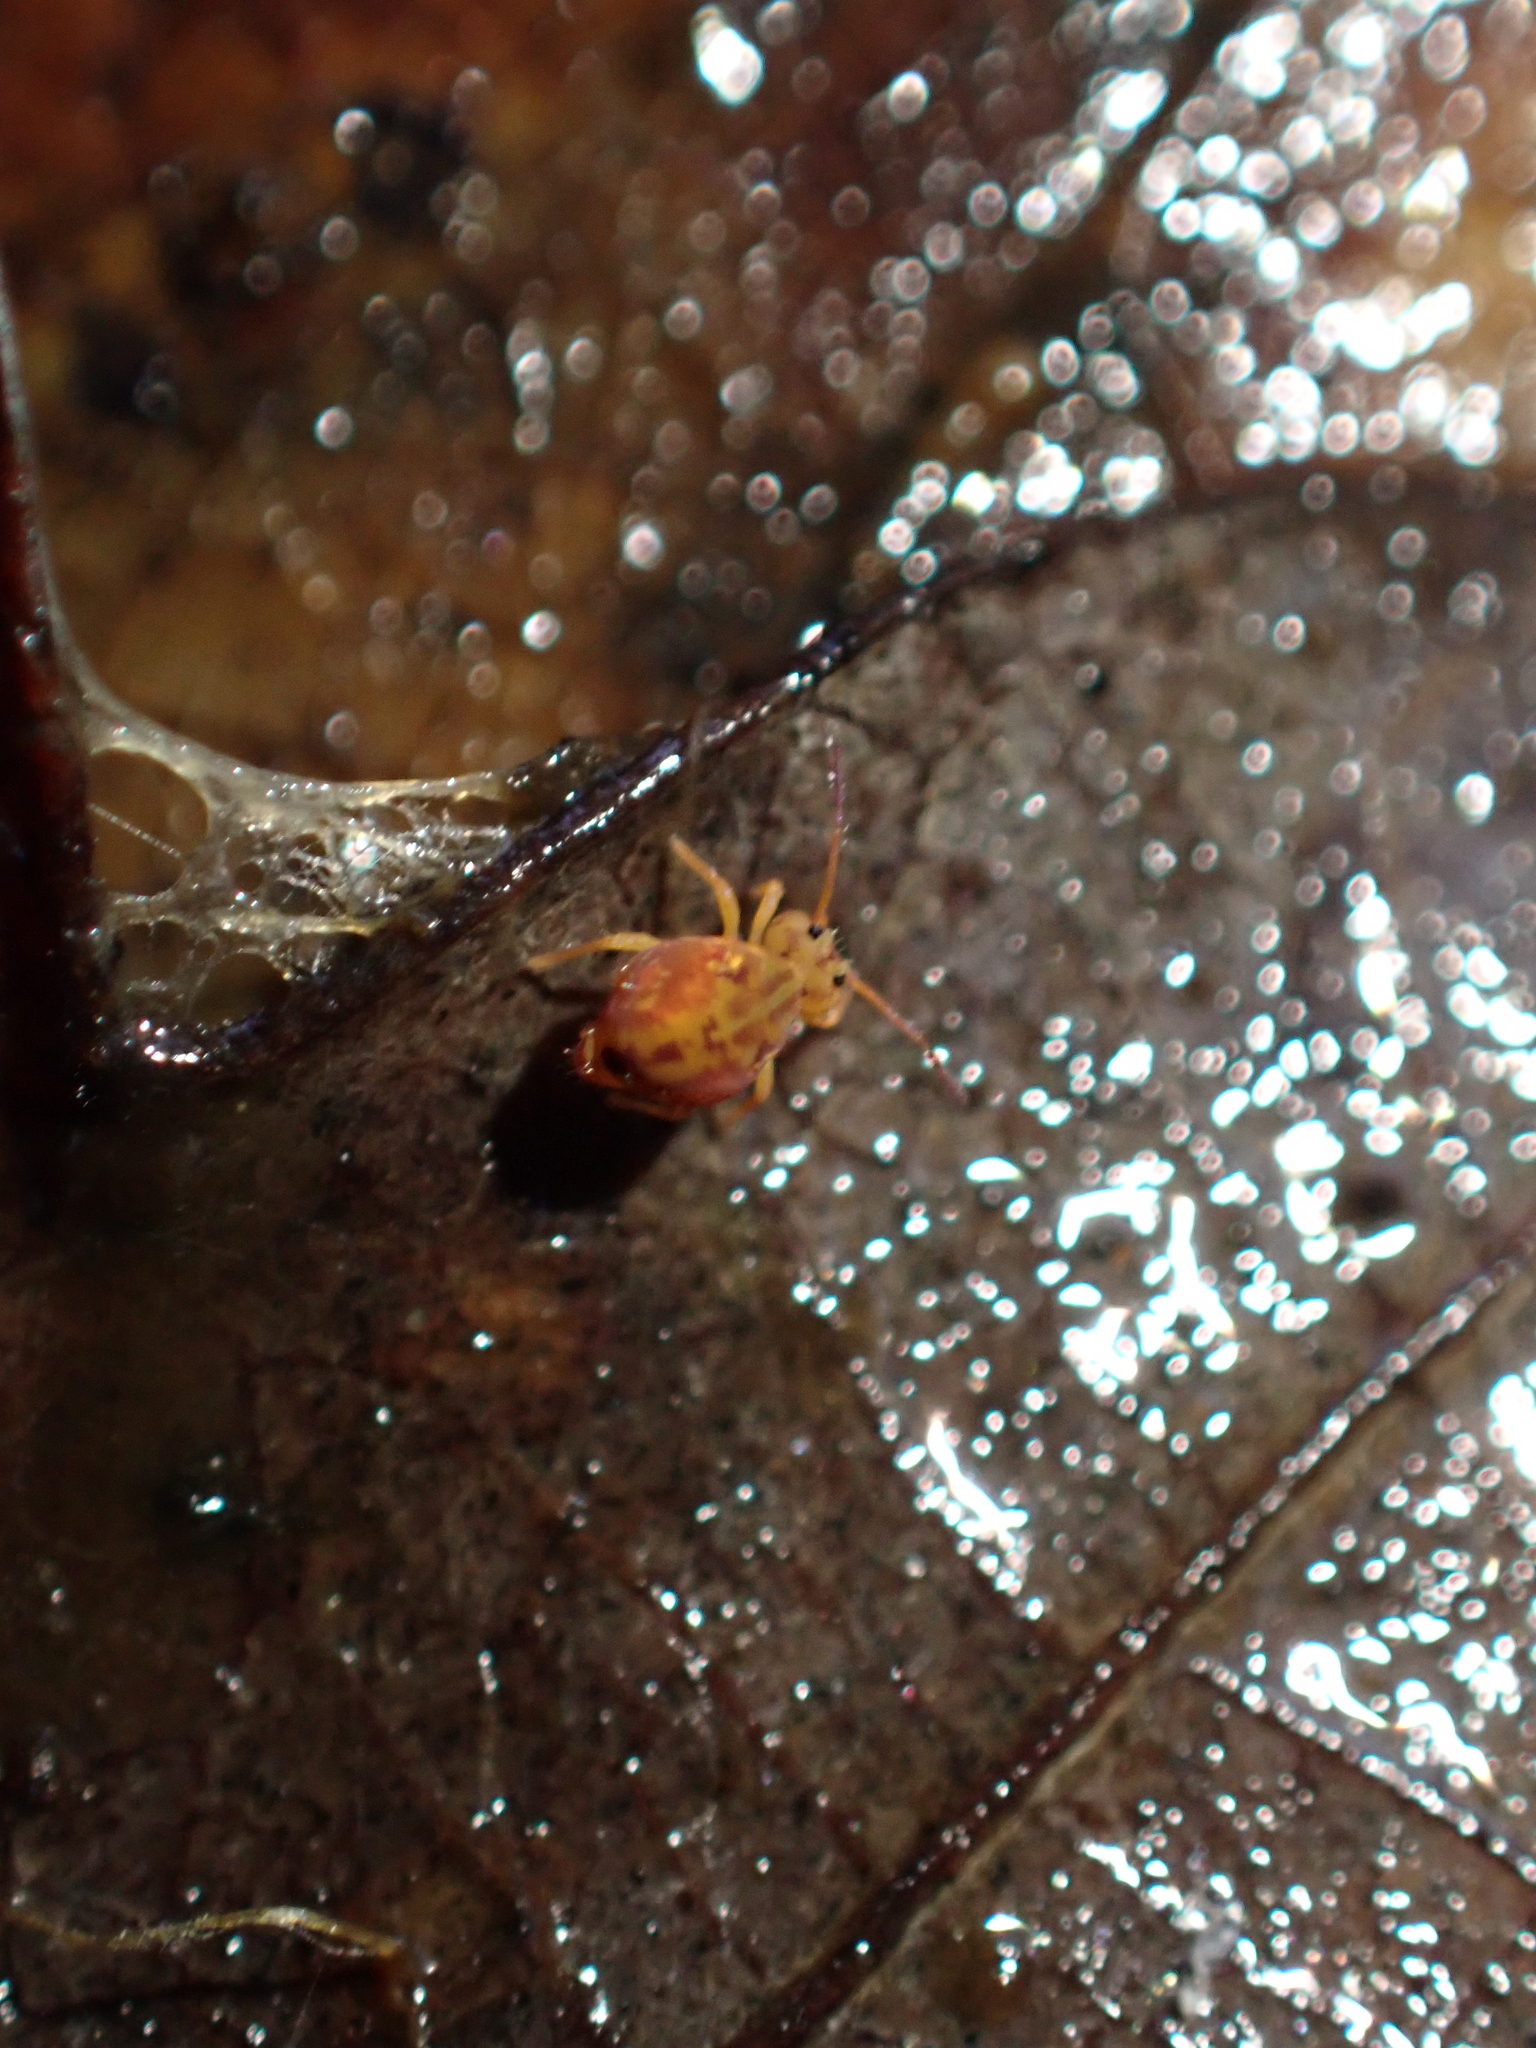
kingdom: Animalia
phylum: Arthropoda
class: Collembola
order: Symphypleona
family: Dicyrtomidae
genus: Dicyrtomina
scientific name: Dicyrtomina ornata
